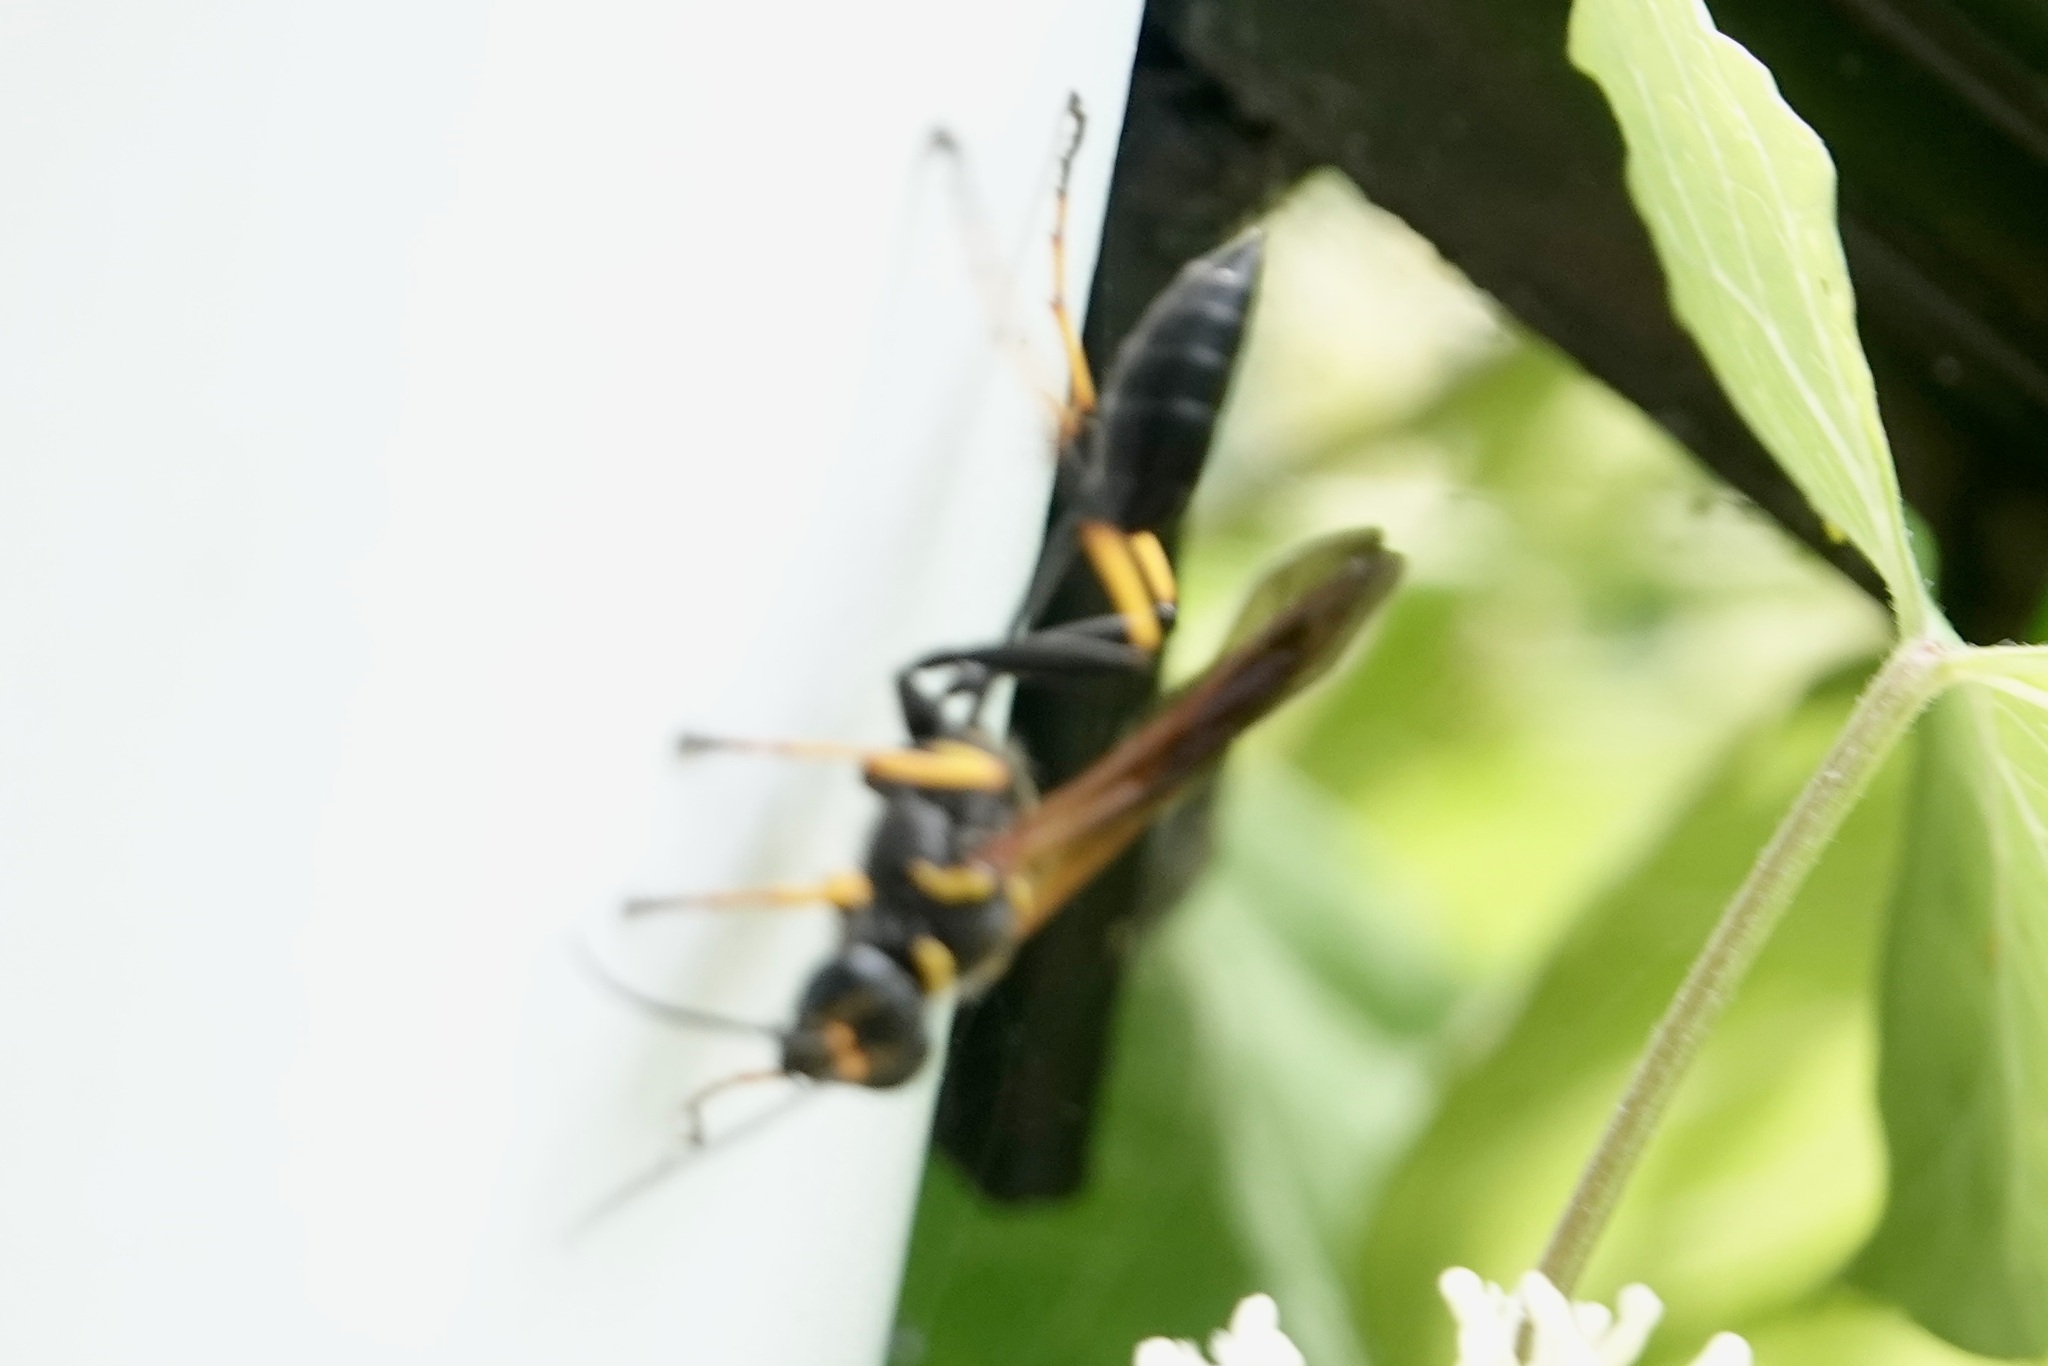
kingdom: Animalia
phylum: Arthropoda
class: Insecta
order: Hymenoptera
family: Sphecidae
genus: Sceliphron
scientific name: Sceliphron caementarium
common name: Mud dauber
